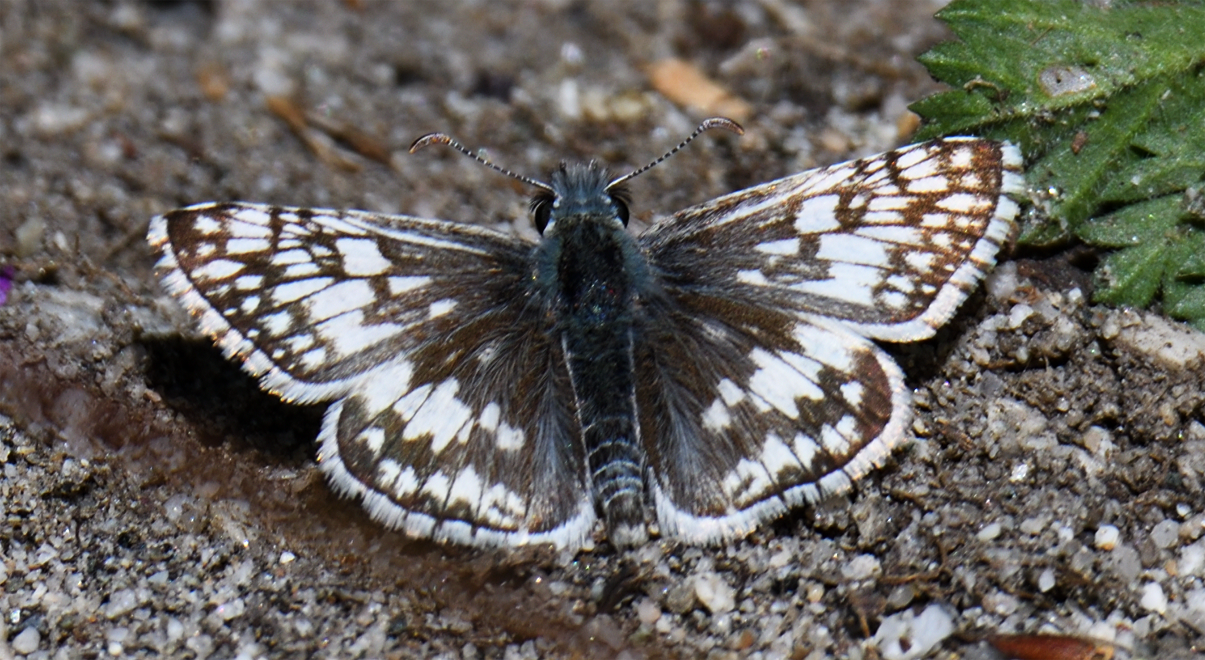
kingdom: Animalia
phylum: Arthropoda
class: Insecta
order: Lepidoptera
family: Hesperiidae
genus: Burnsius
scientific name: Burnsius albezens
